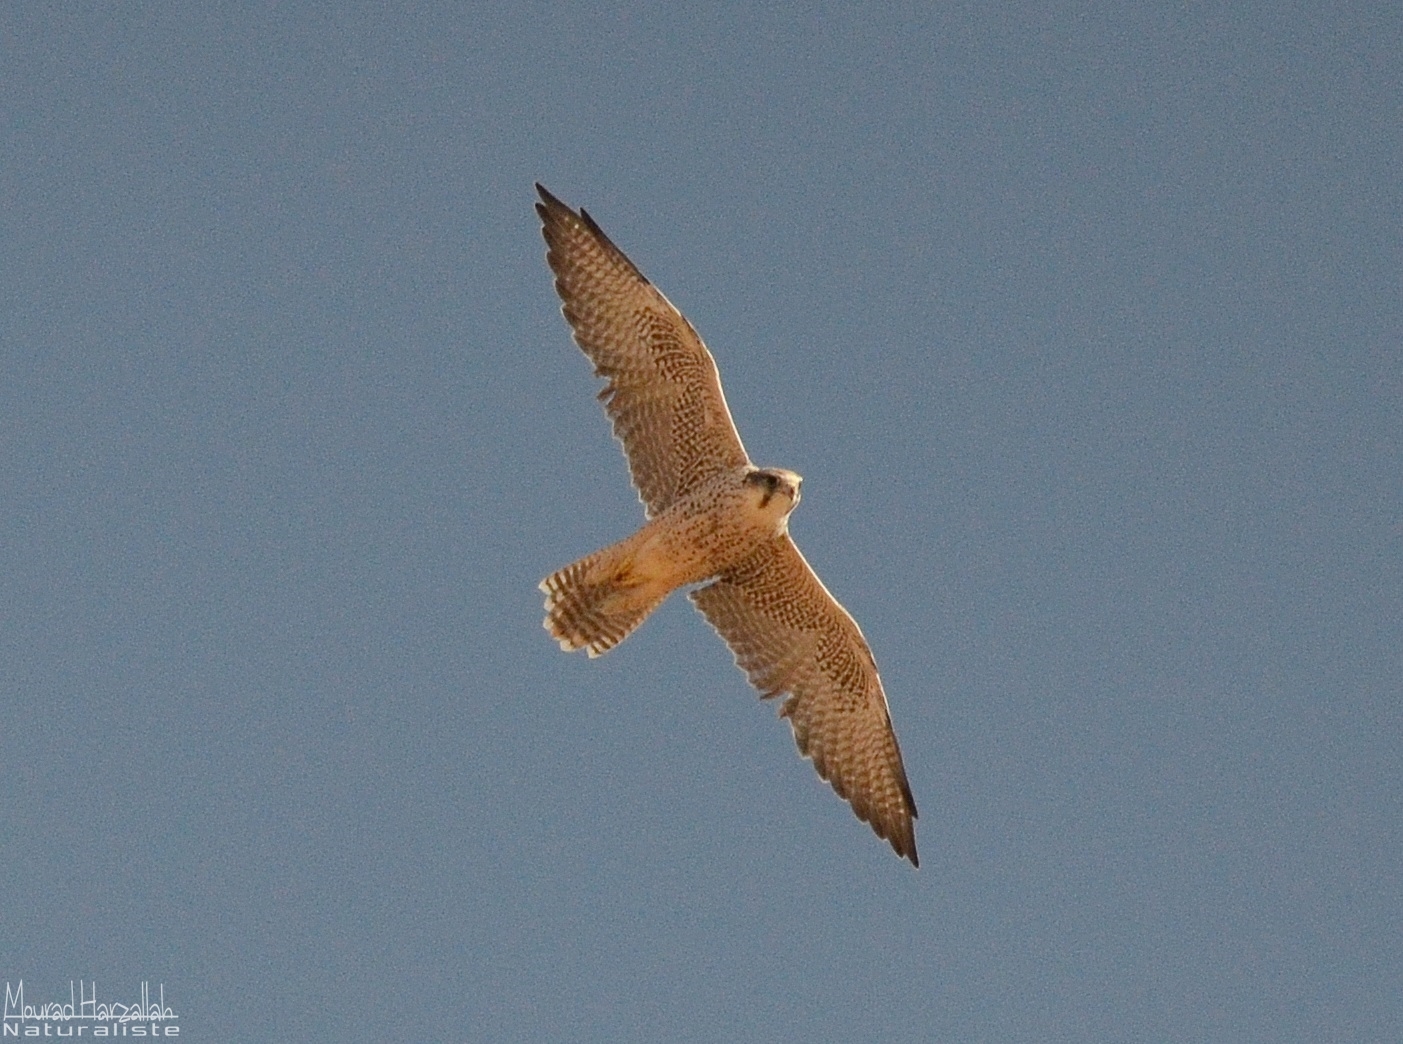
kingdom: Animalia
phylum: Chordata
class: Aves
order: Falconiformes
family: Falconidae
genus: Falco
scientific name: Falco biarmicus
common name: Lanner falcon
